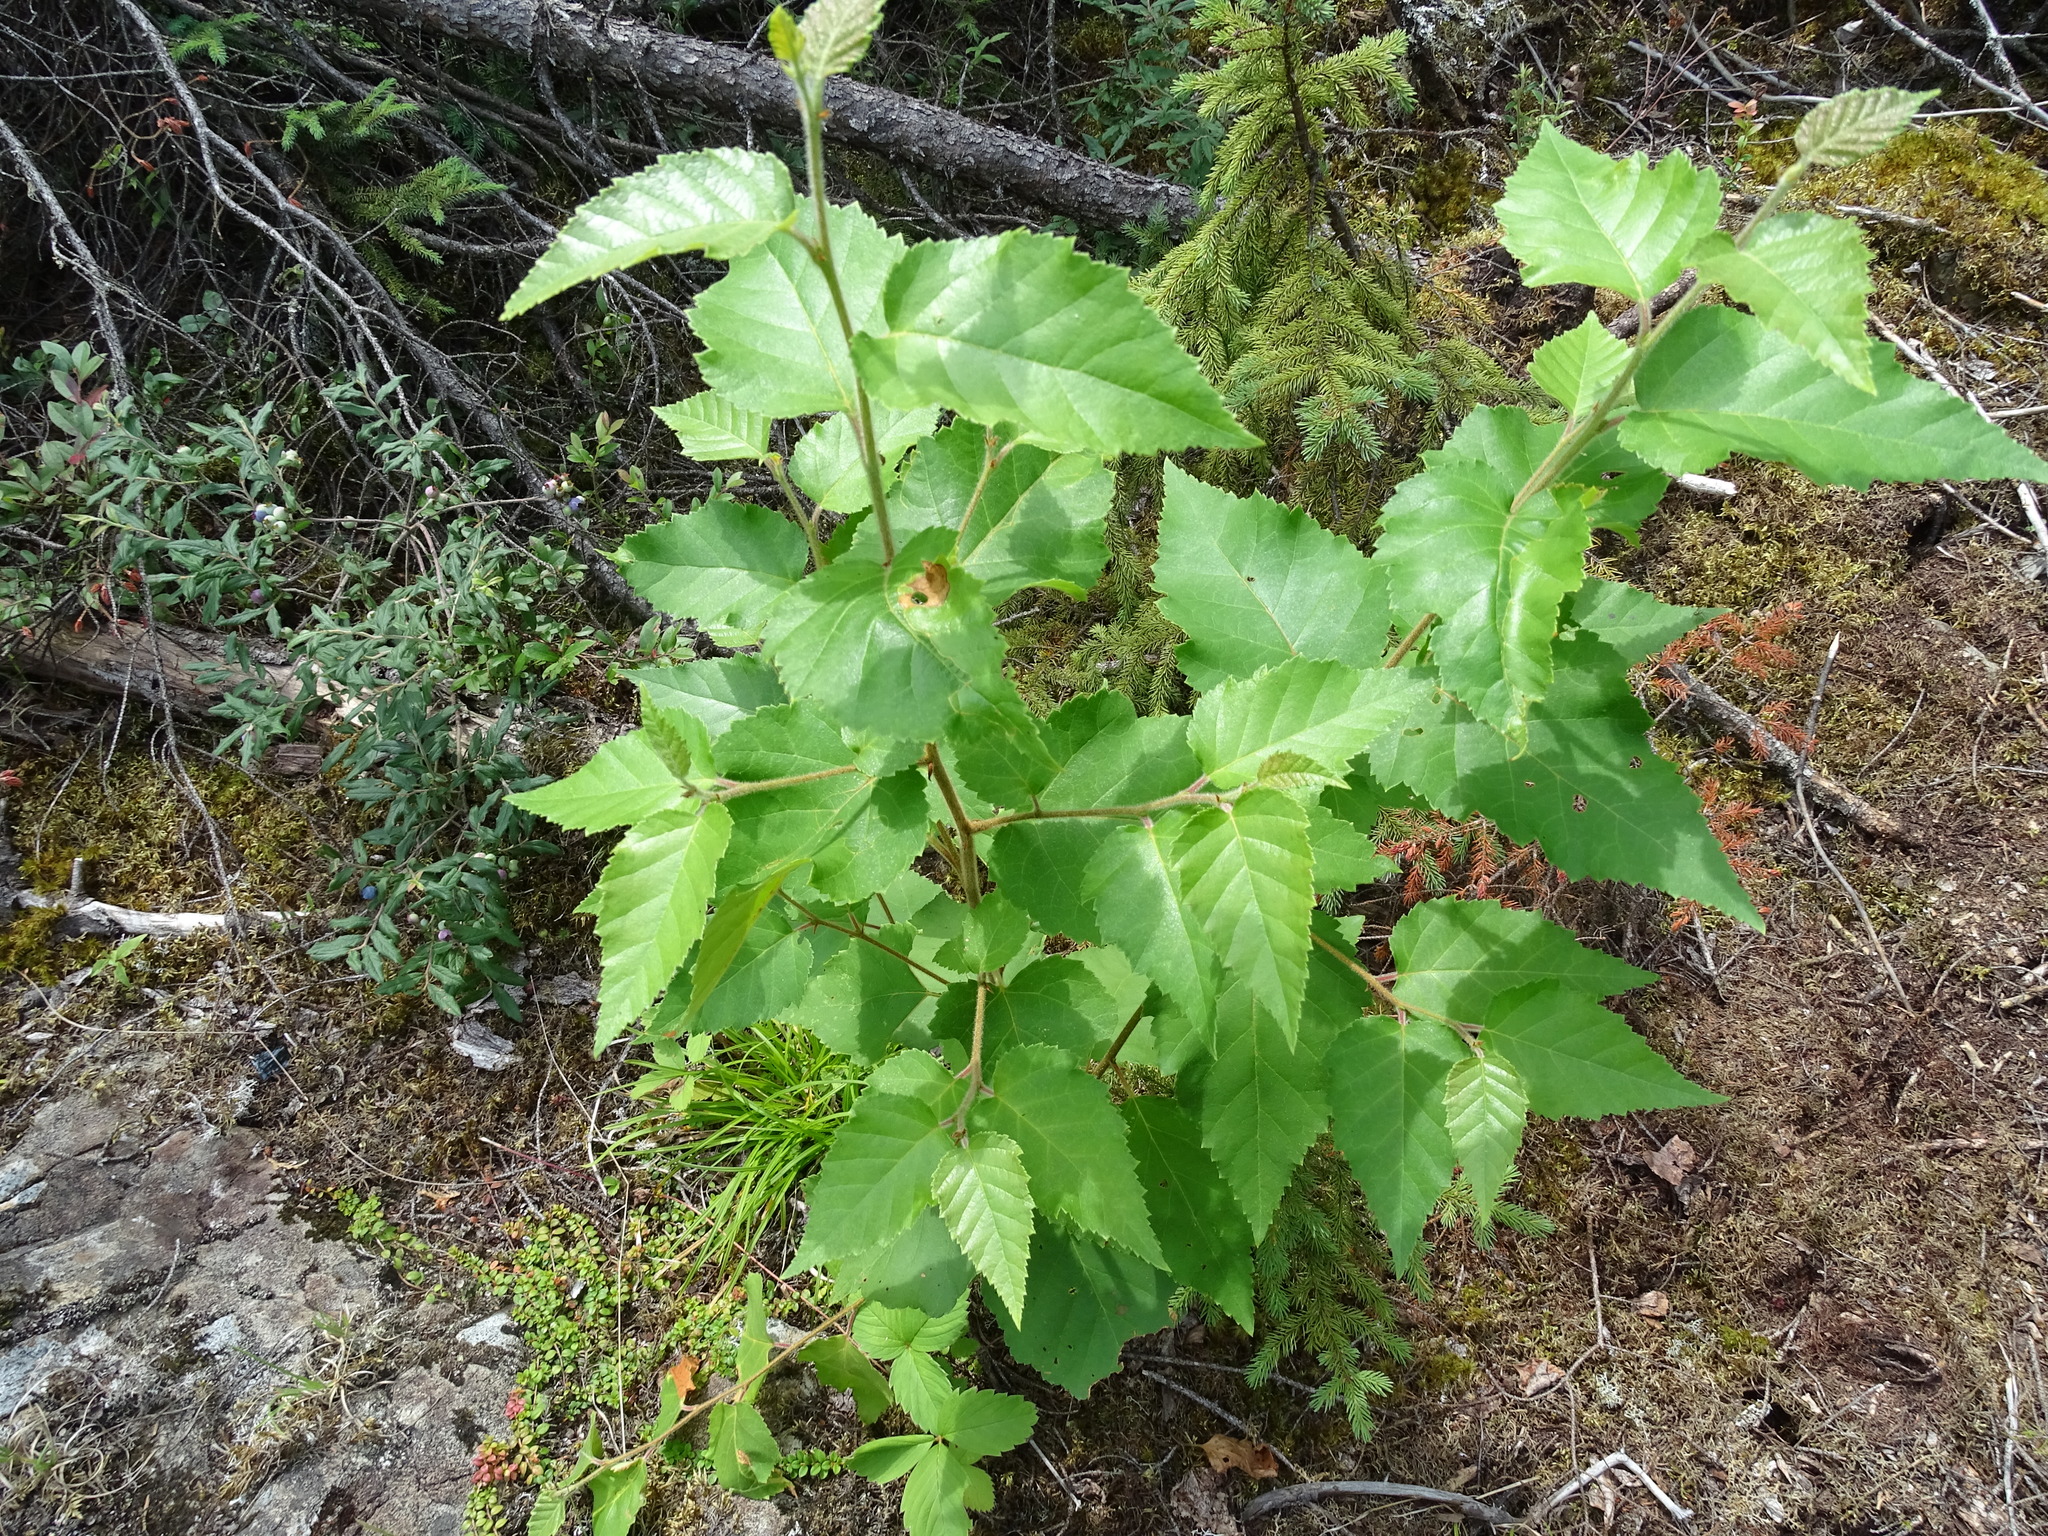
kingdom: Plantae
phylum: Tracheophyta
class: Magnoliopsida
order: Fagales
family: Betulaceae
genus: Betula
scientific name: Betula papyrifera
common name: Paper birch
